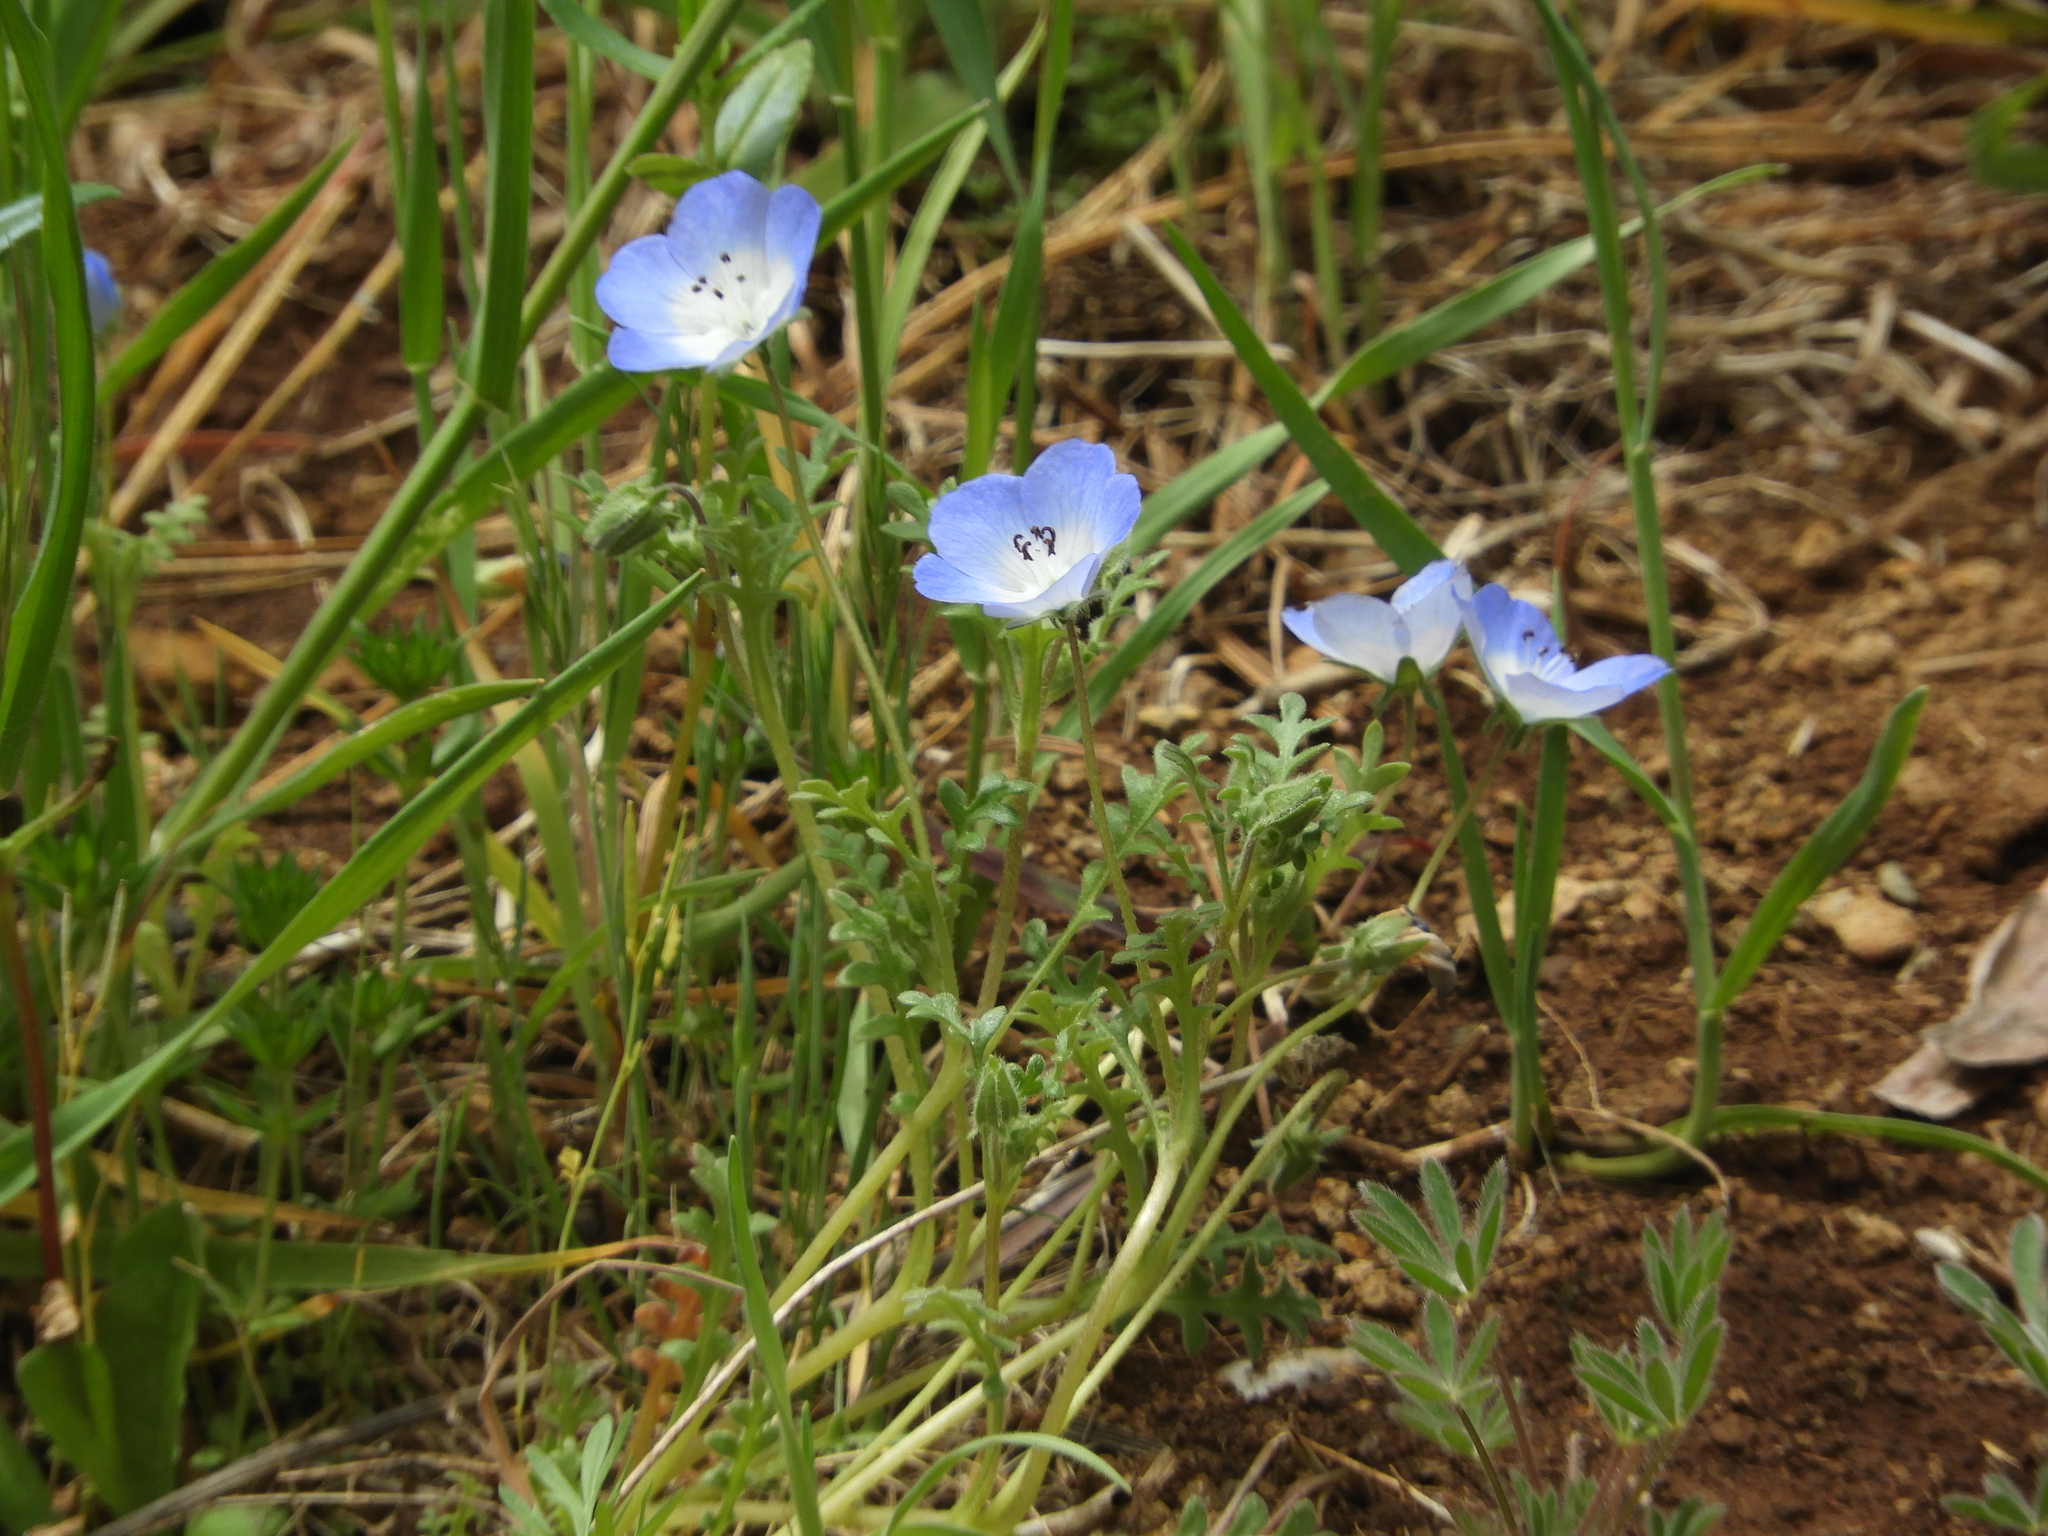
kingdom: Plantae
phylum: Tracheophyta
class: Magnoliopsida
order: Boraginales
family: Hydrophyllaceae
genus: Nemophila
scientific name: Nemophila menziesii
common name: Baby's-blue-eyes
